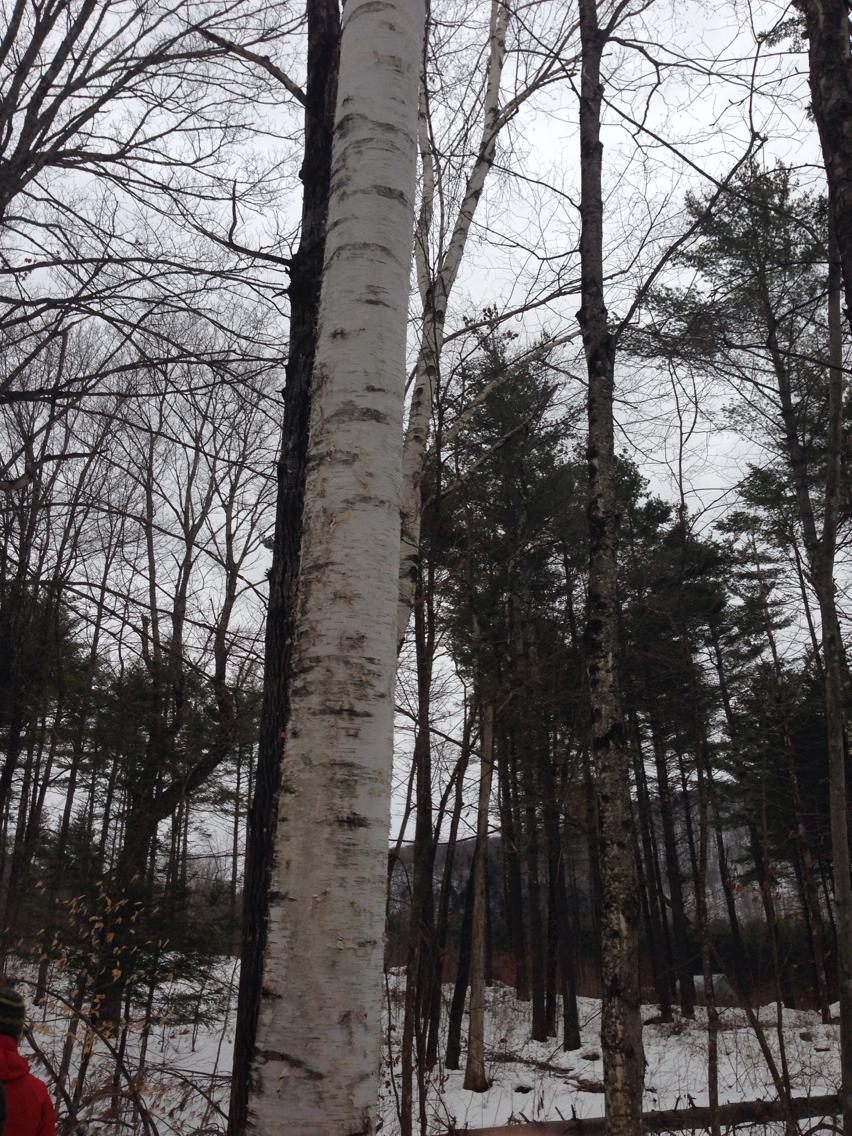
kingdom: Plantae
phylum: Tracheophyta
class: Magnoliopsida
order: Fagales
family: Betulaceae
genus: Betula
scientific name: Betula papyrifera
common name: Paper birch
